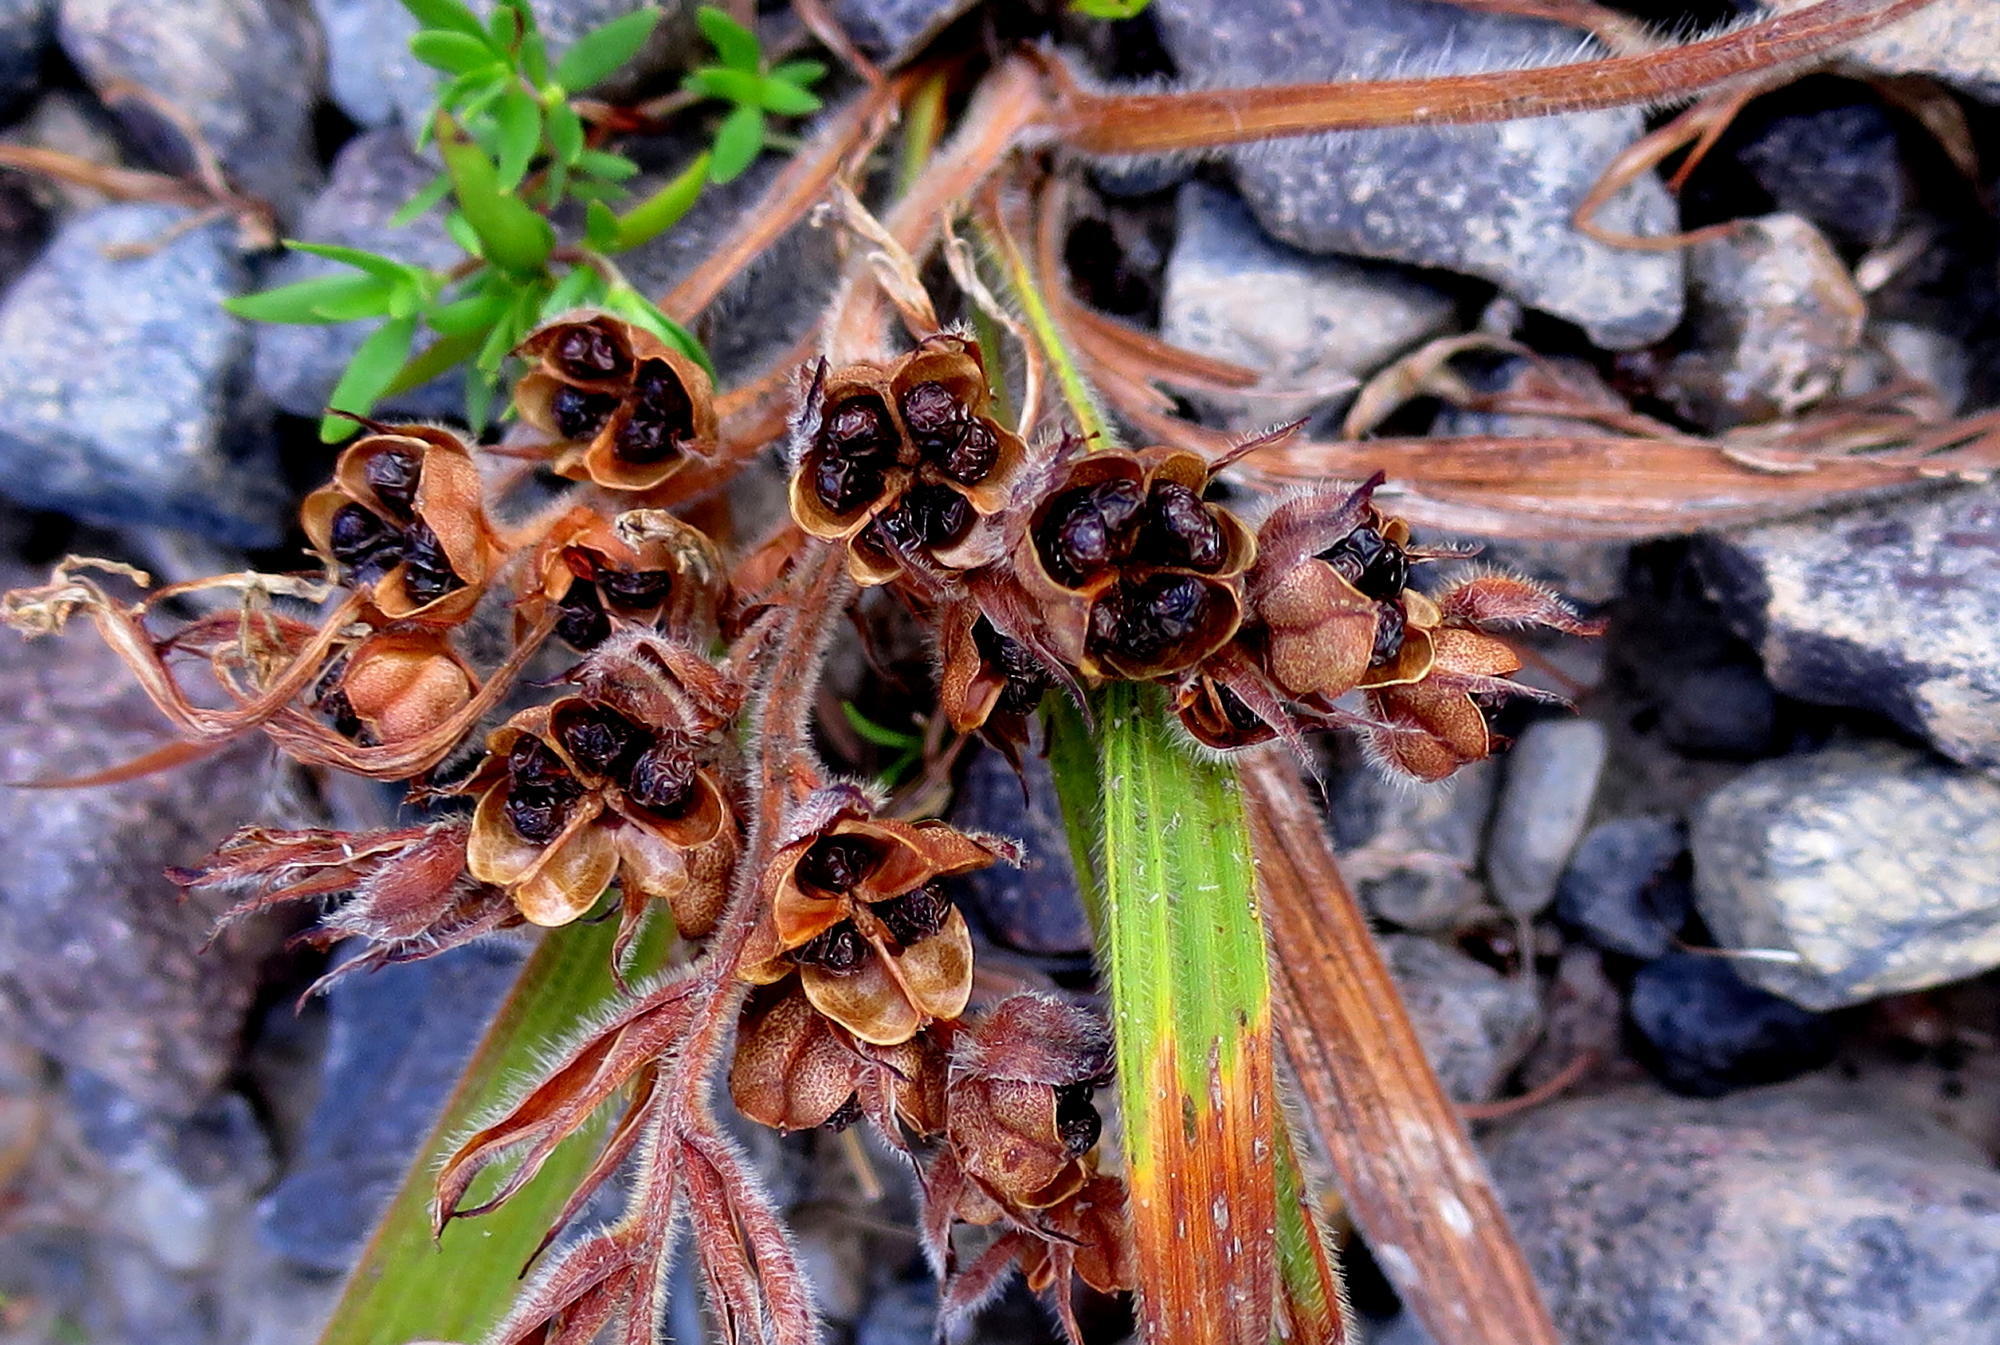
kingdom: Plantae
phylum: Tracheophyta
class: Liliopsida
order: Asparagales
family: Iridaceae
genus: Babiana
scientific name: Babiana sambucina
